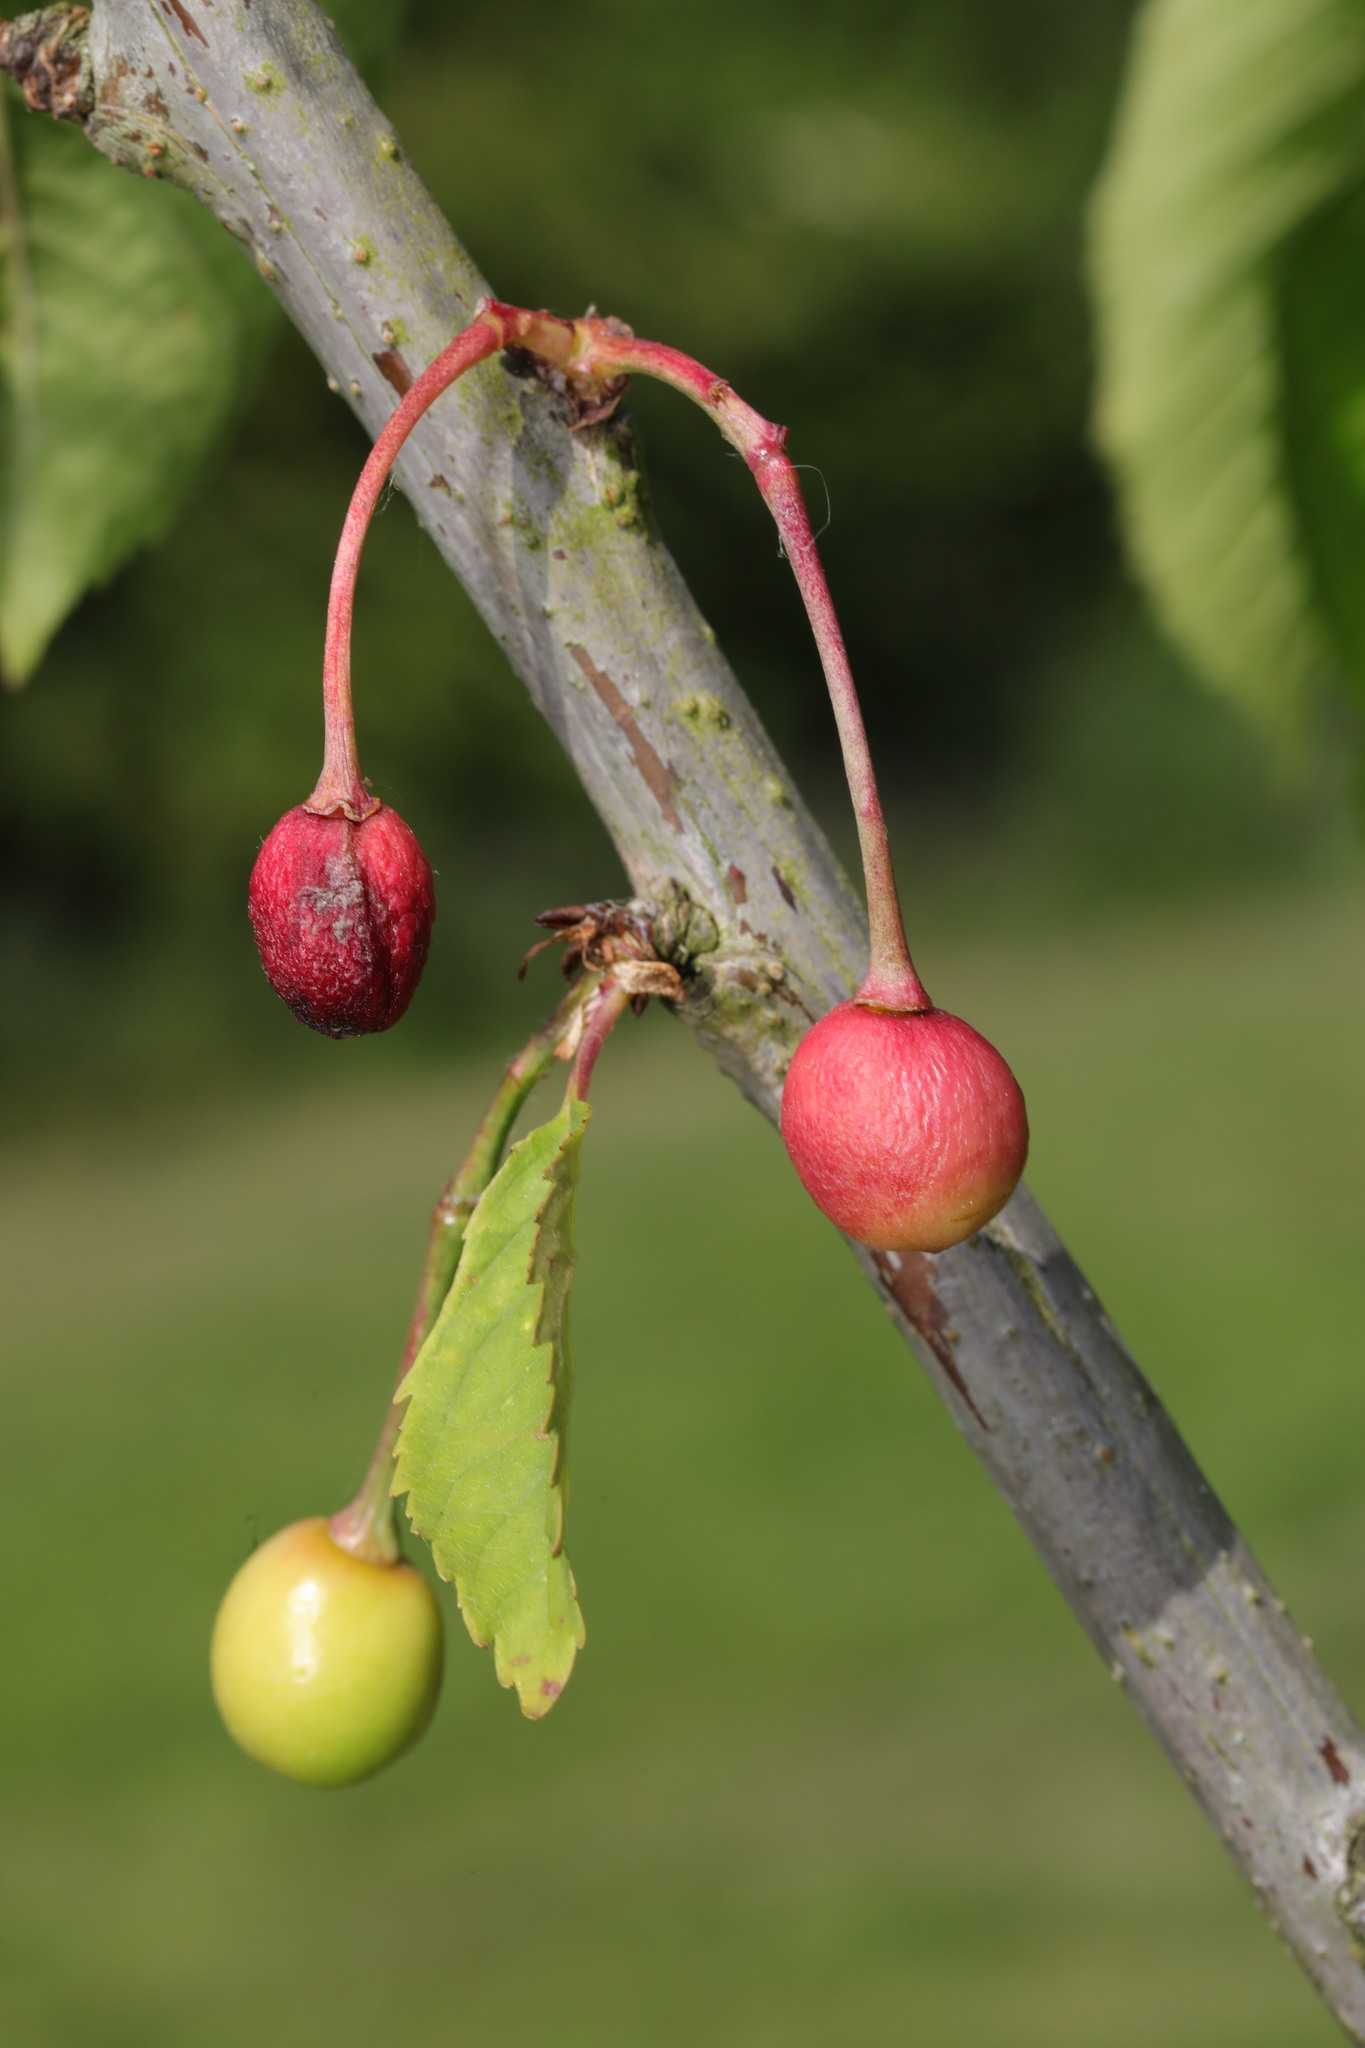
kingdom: Plantae
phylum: Tracheophyta
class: Magnoliopsida
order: Rosales
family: Rosaceae
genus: Prunus
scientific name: Prunus avium
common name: Sweet cherry
